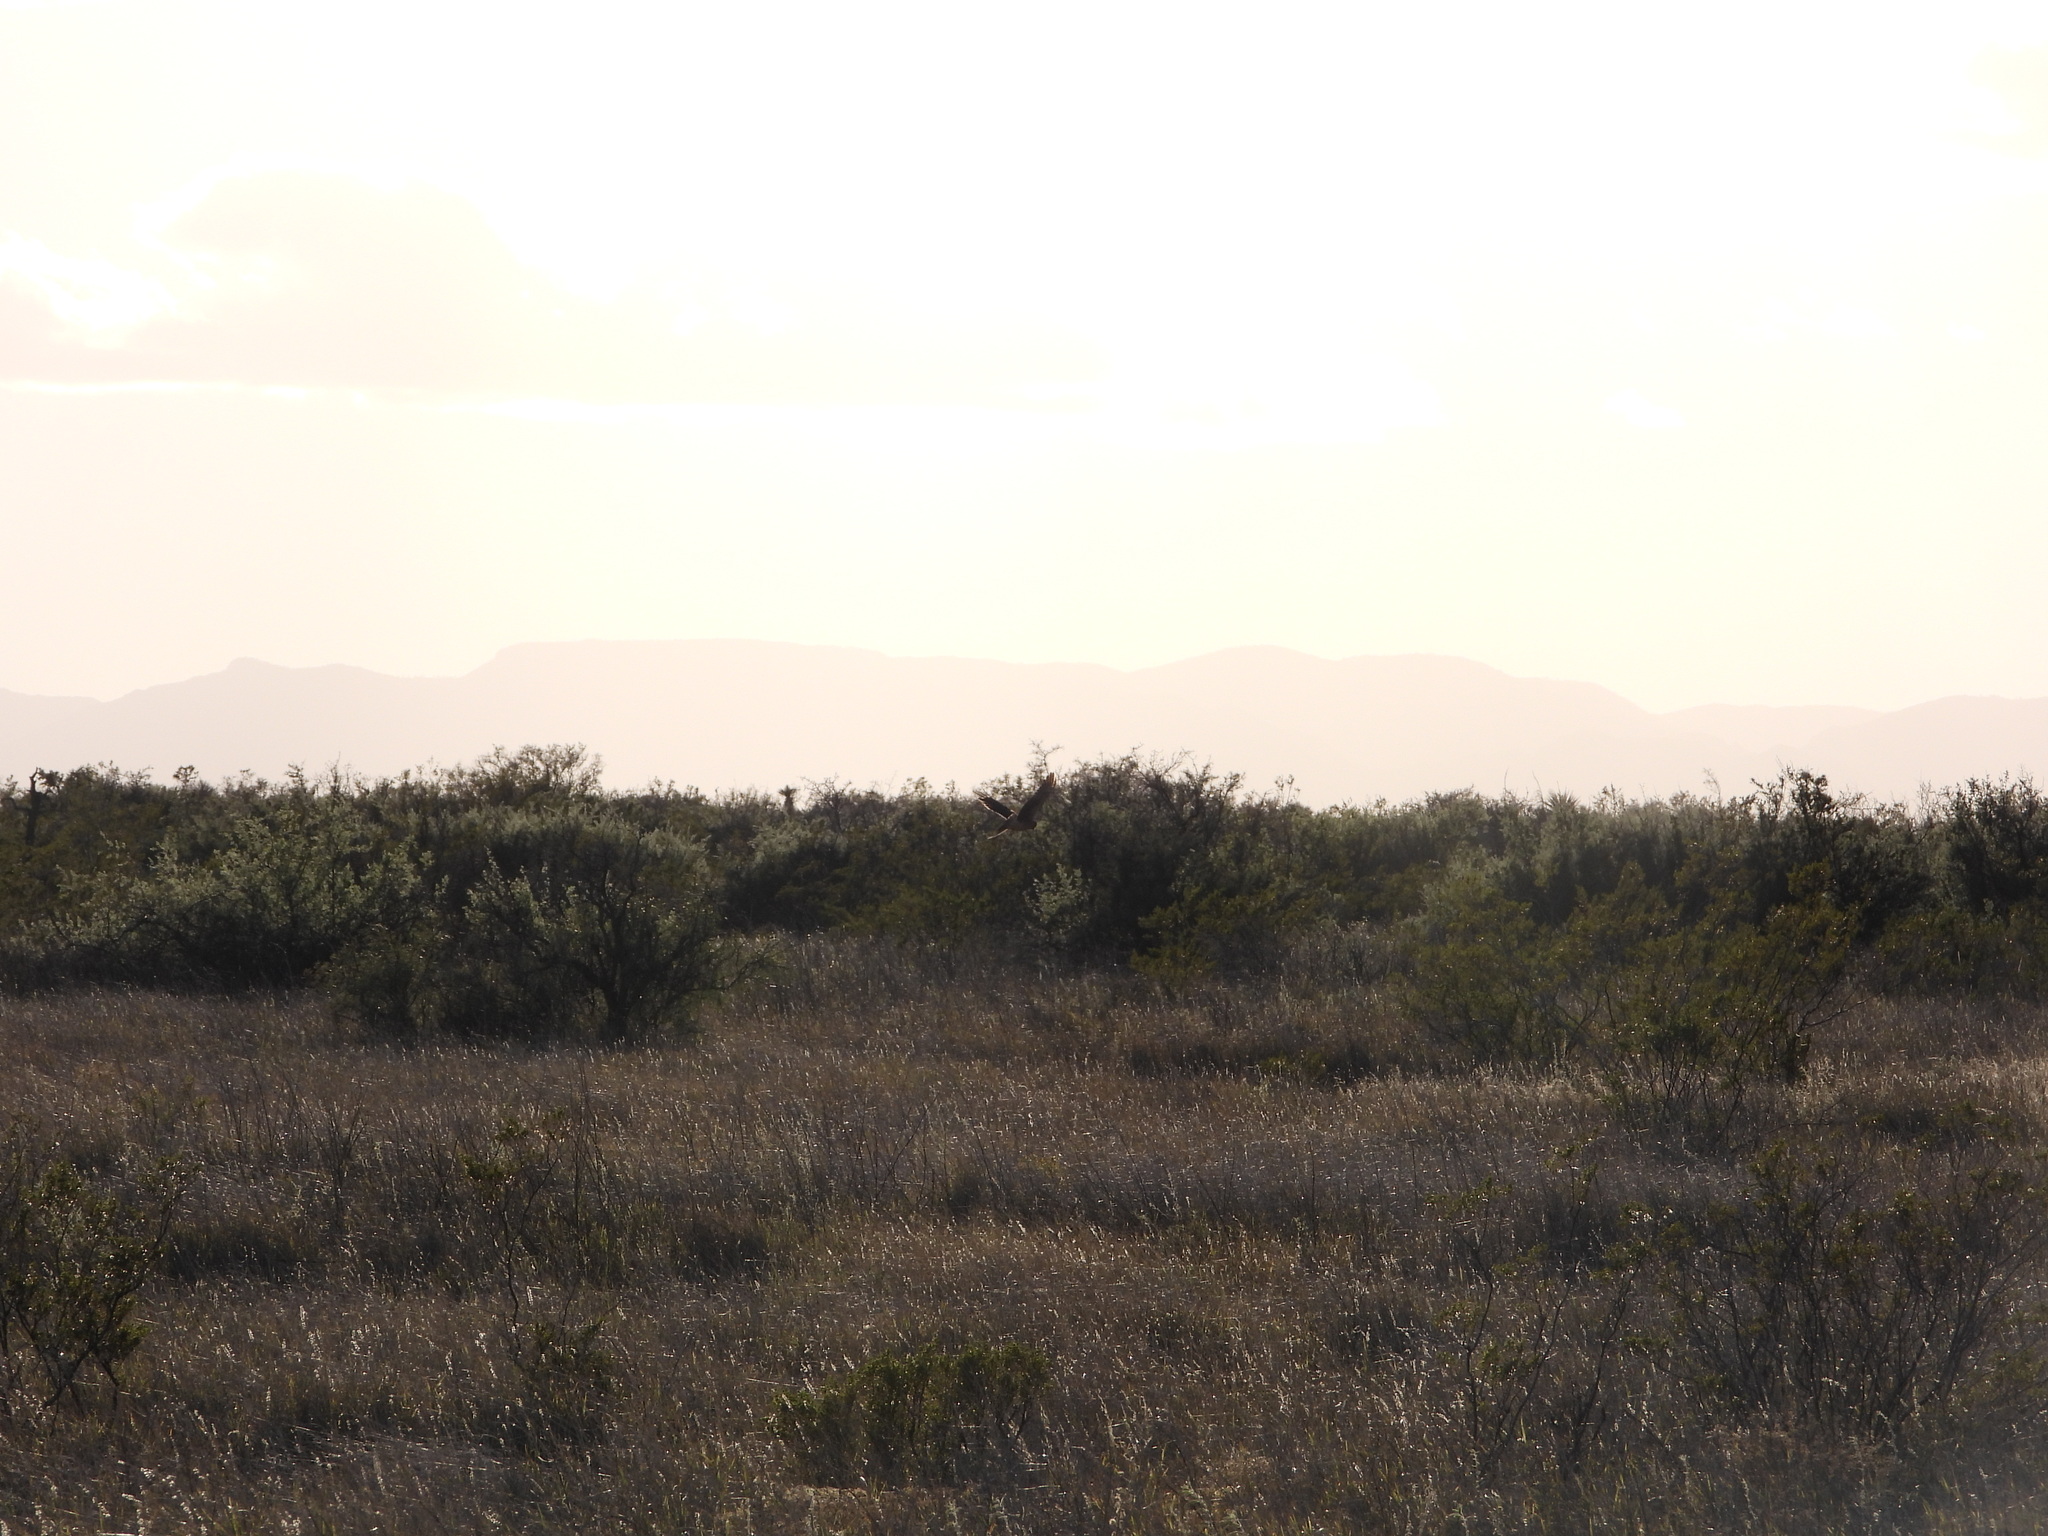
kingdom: Animalia
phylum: Chordata
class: Aves
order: Accipitriformes
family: Accipitridae
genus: Circus
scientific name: Circus cyaneus
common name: Hen harrier
